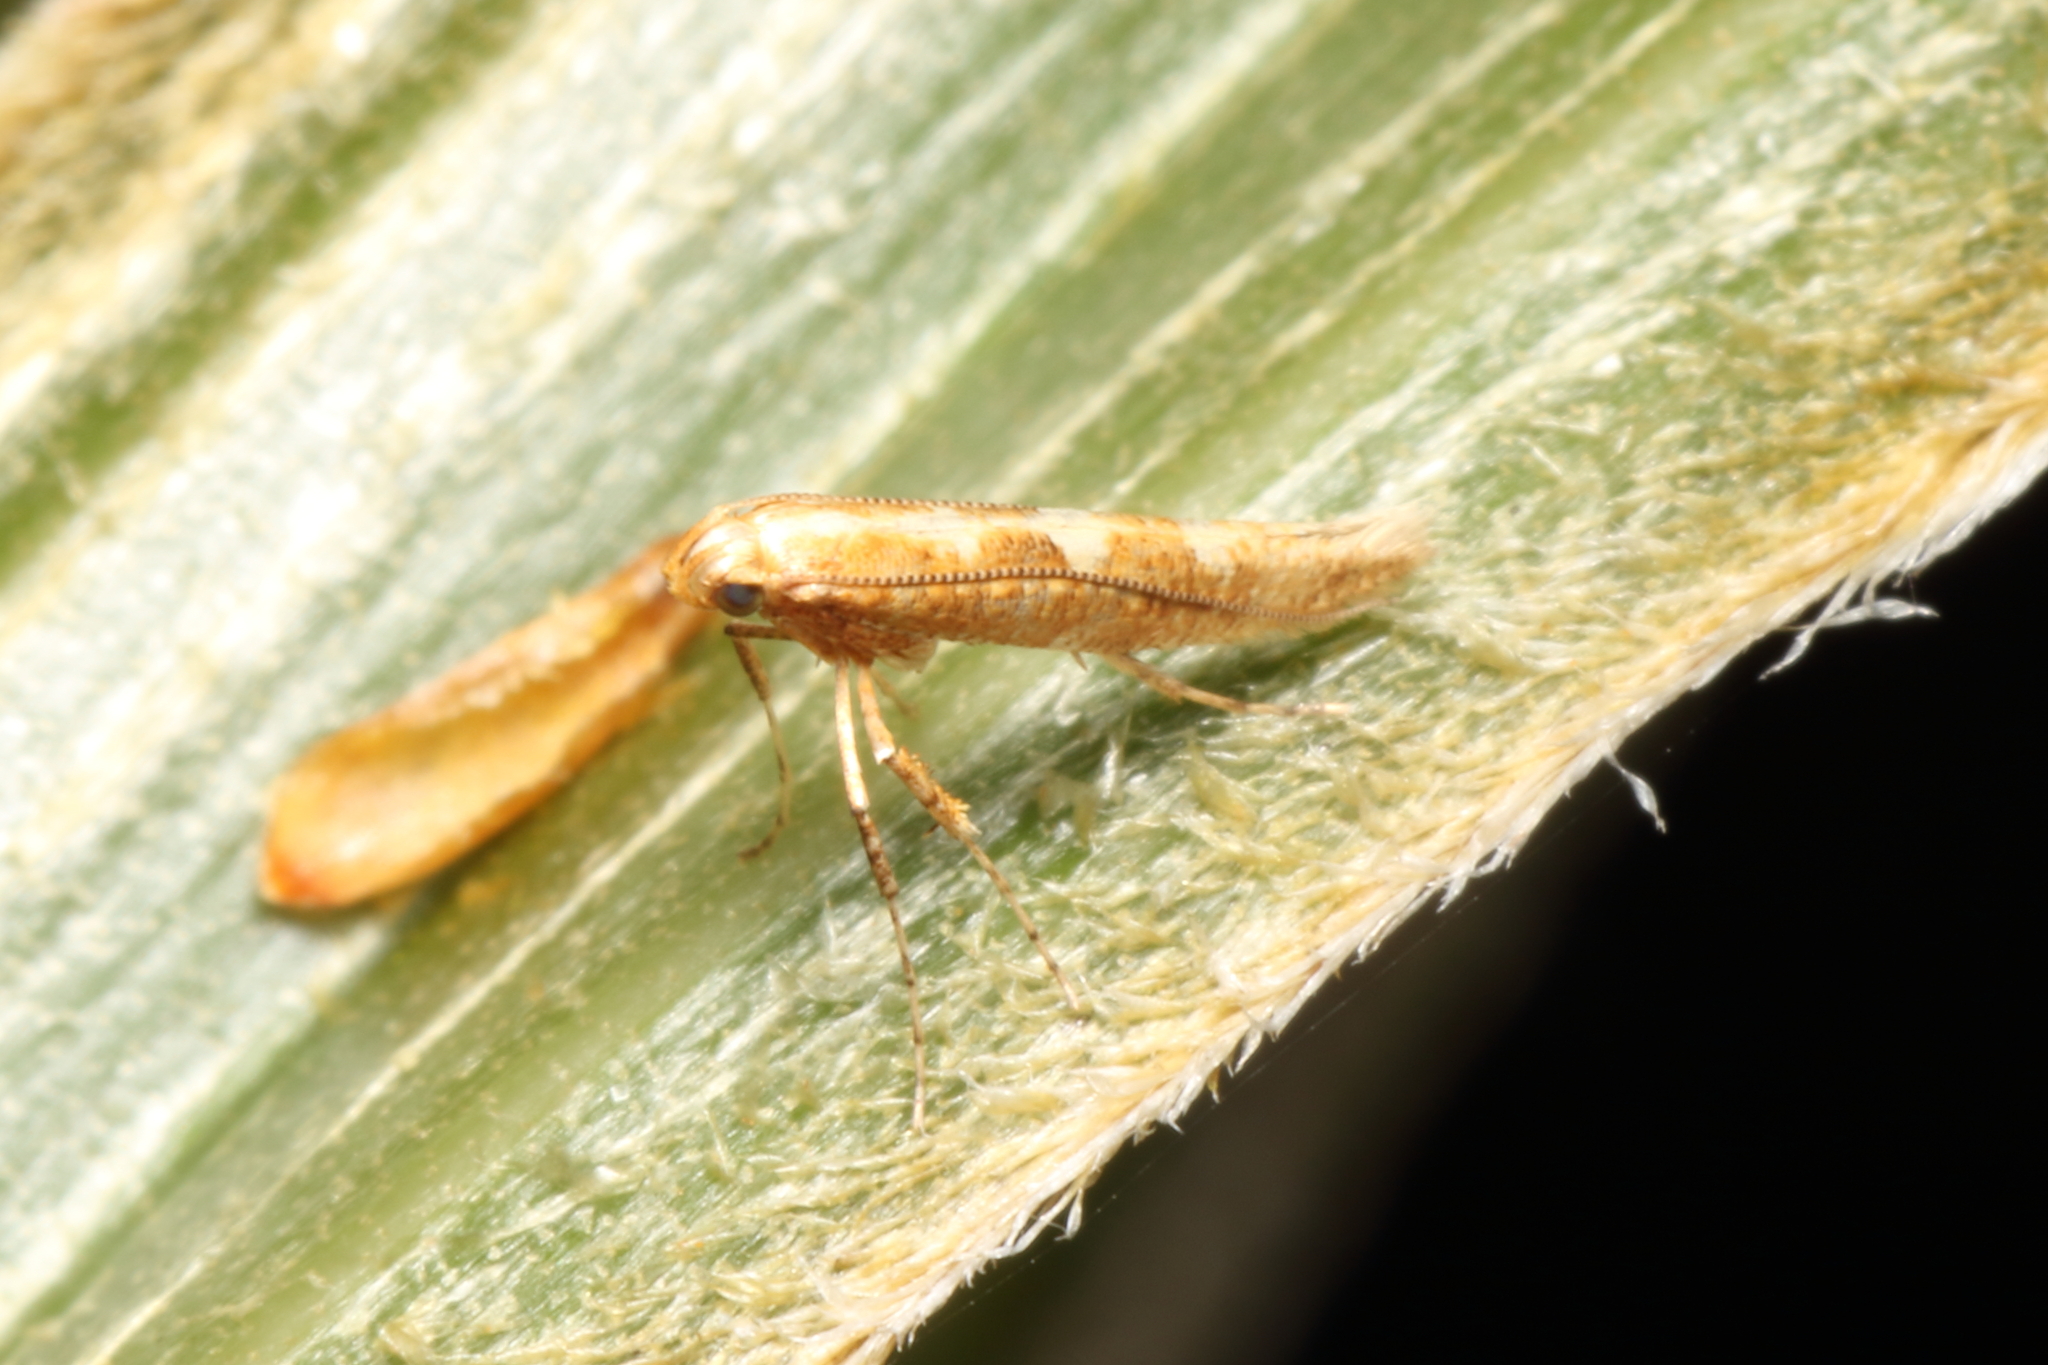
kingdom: Animalia
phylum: Arthropoda
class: Insecta
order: Lepidoptera
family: Gracillariidae
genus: Caloptilia
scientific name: Caloptilia selenitis
